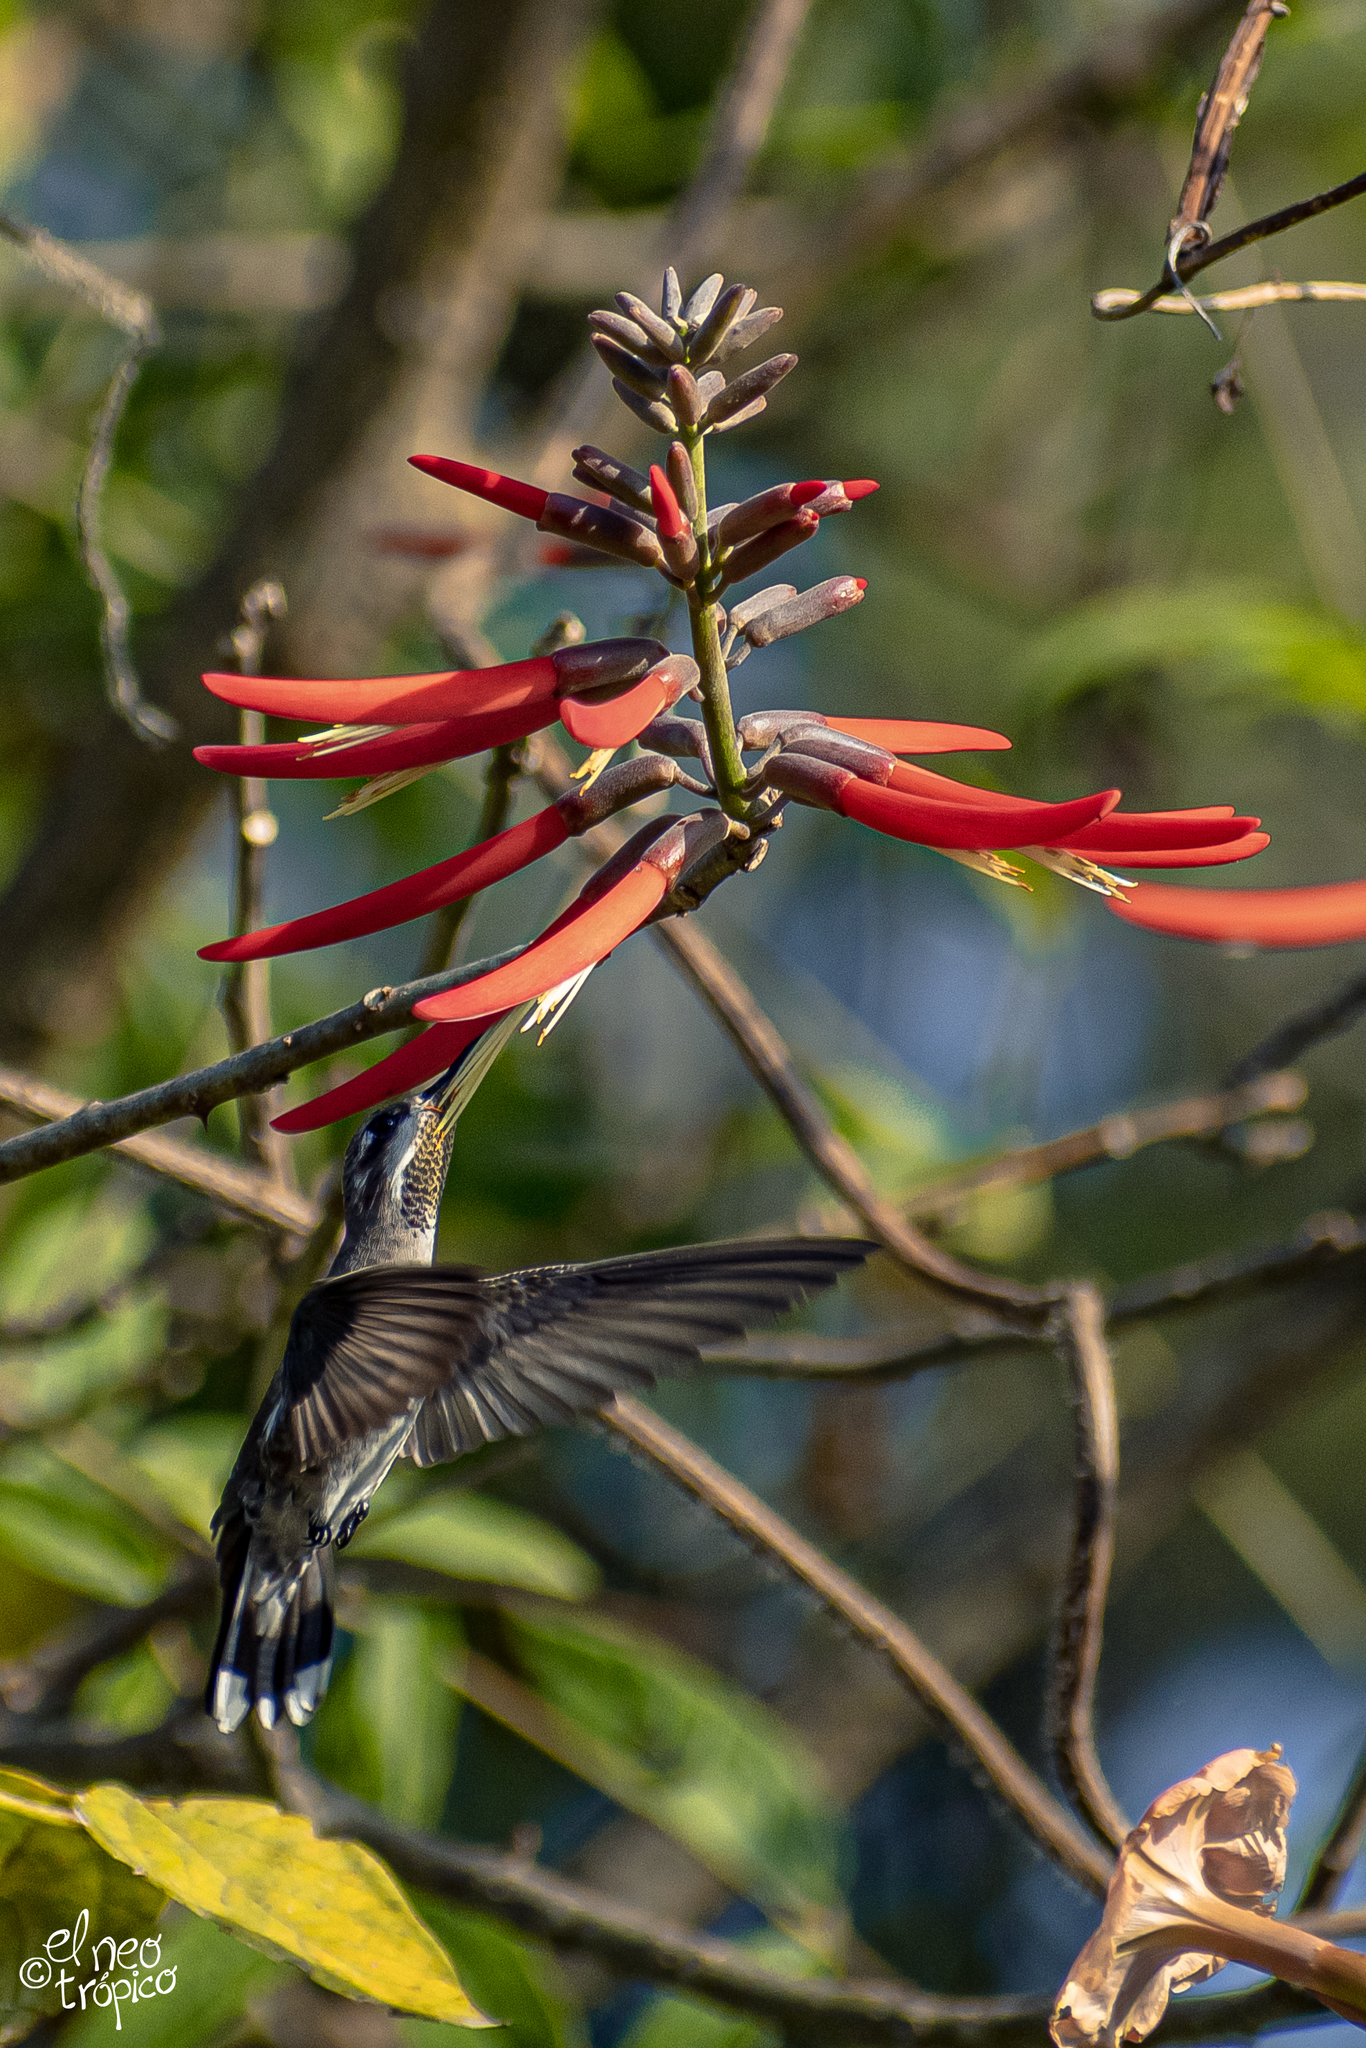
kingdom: Animalia
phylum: Chordata
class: Aves
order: Apodiformes
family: Trochilidae
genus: Heliomaster
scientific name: Heliomaster constantii
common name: Plain-capped starthroat
